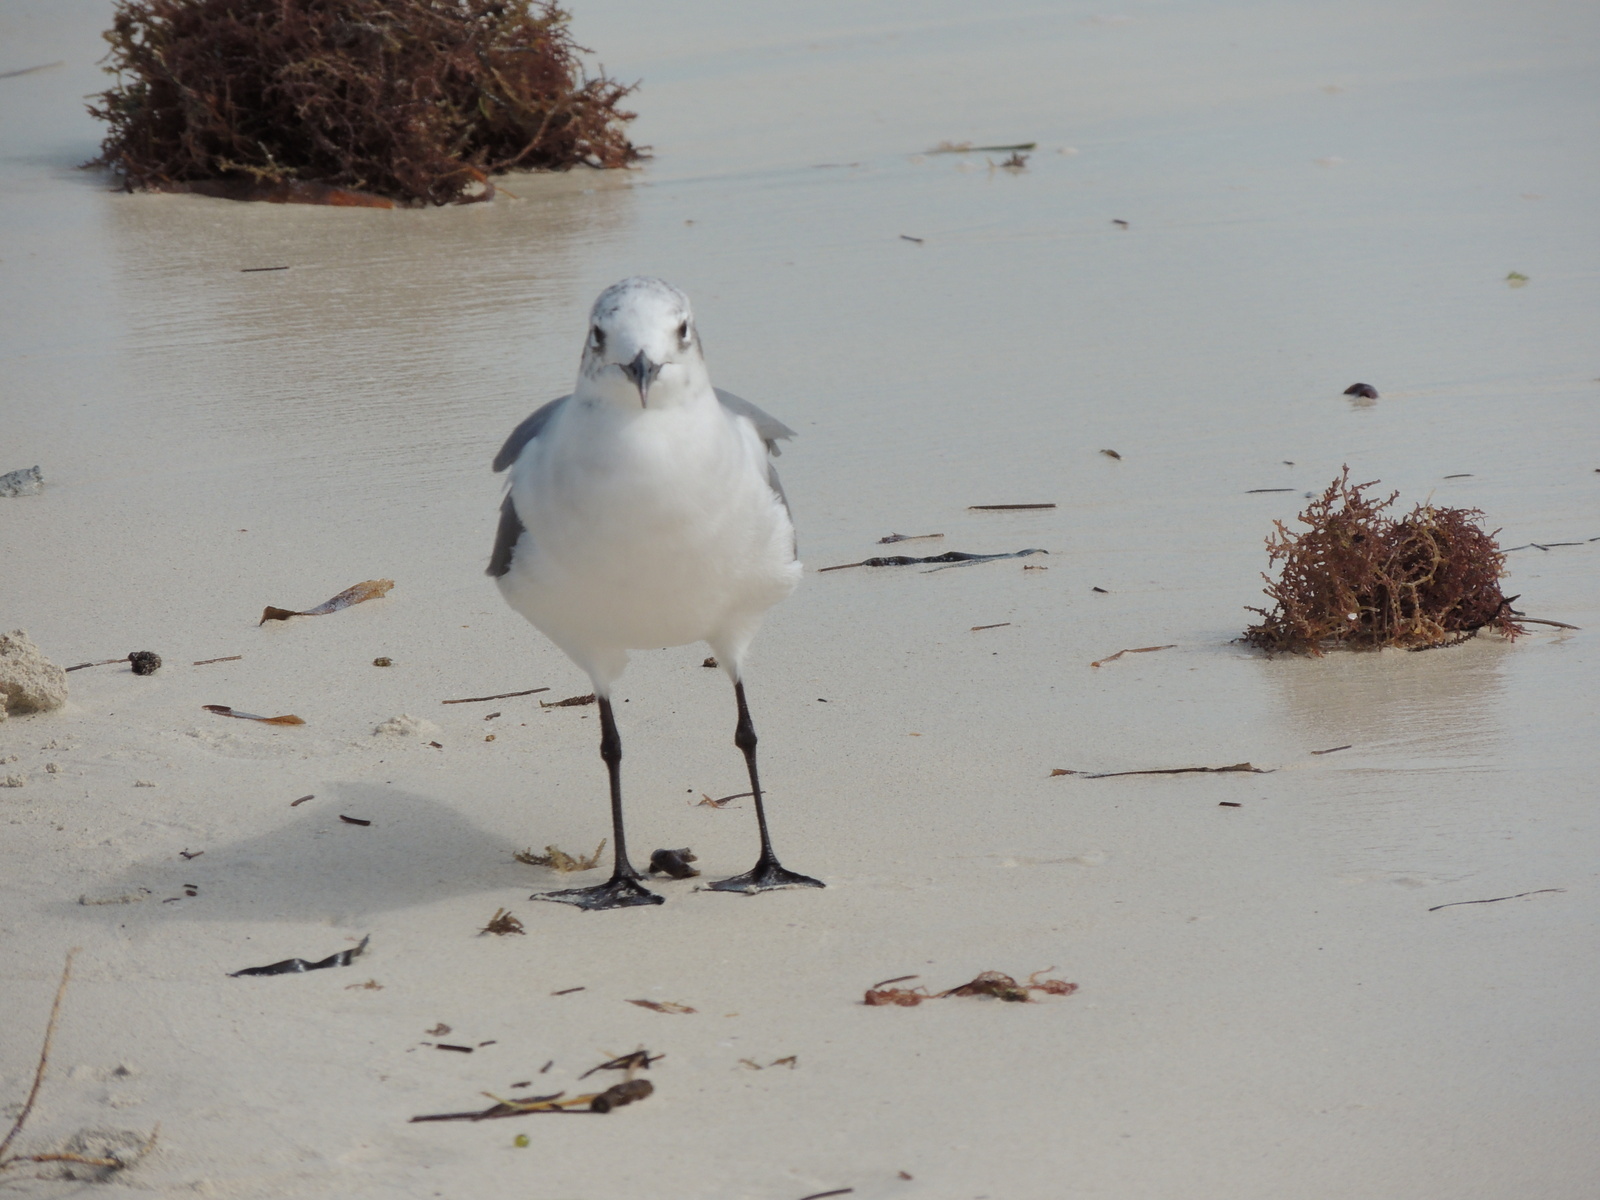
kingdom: Animalia
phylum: Chordata
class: Aves
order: Charadriiformes
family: Laridae
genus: Leucophaeus
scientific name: Leucophaeus atricilla
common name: Laughing gull
